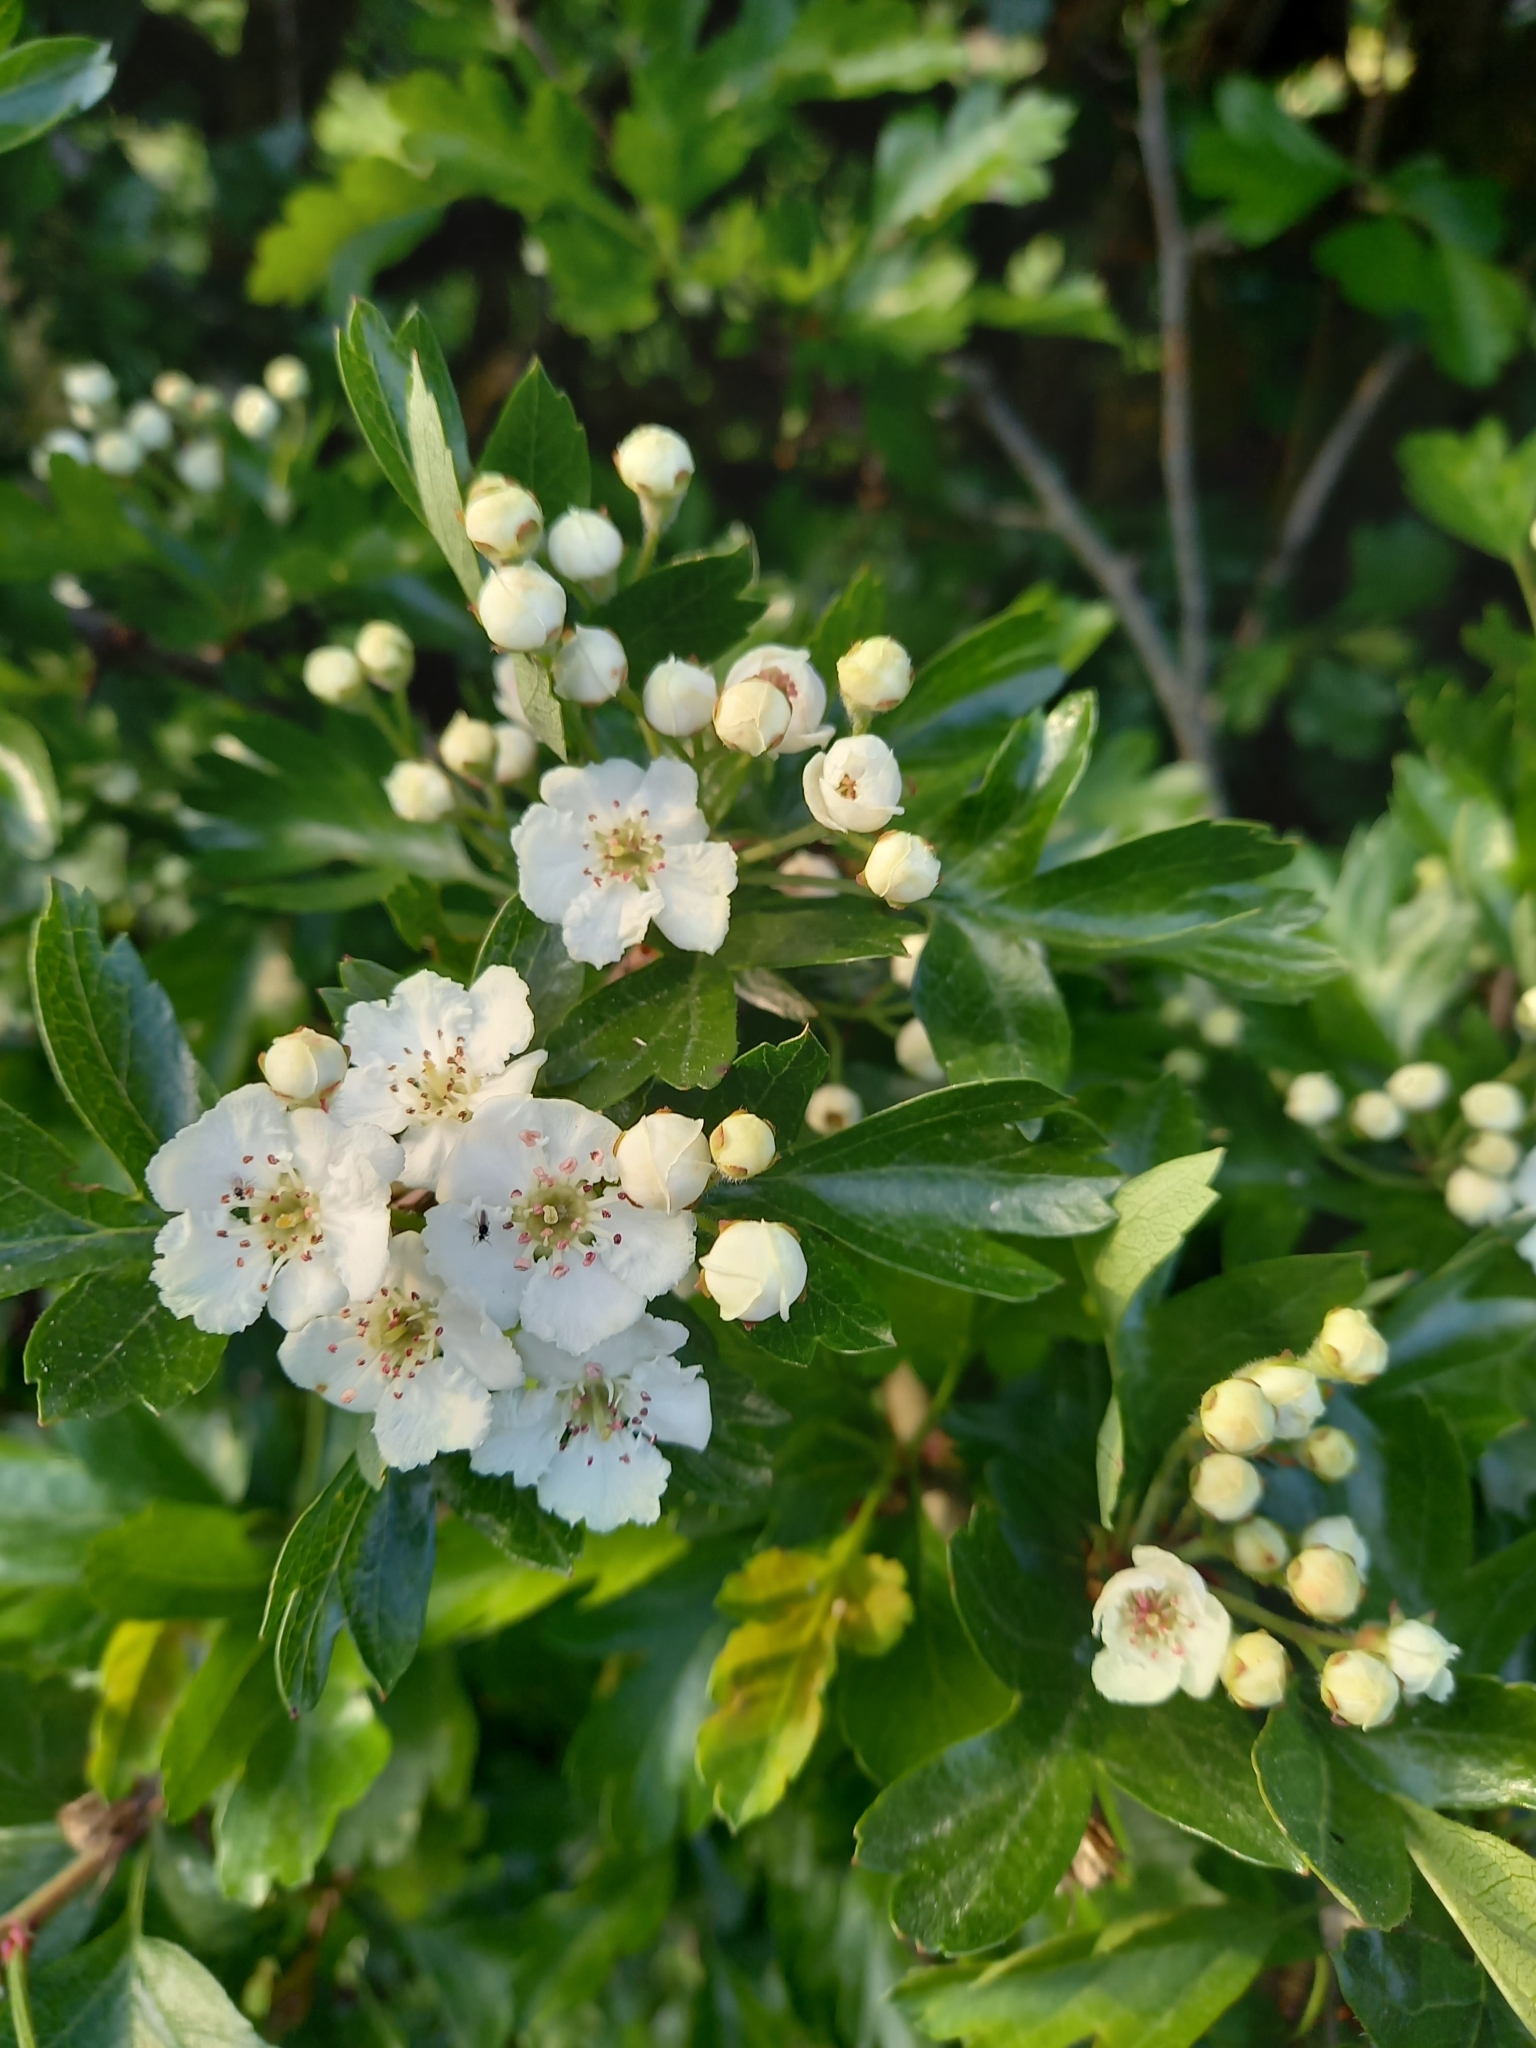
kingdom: Plantae
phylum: Tracheophyta
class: Magnoliopsida
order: Rosales
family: Rosaceae
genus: Crataegus
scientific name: Crataegus monogyna
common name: Hawthorn
